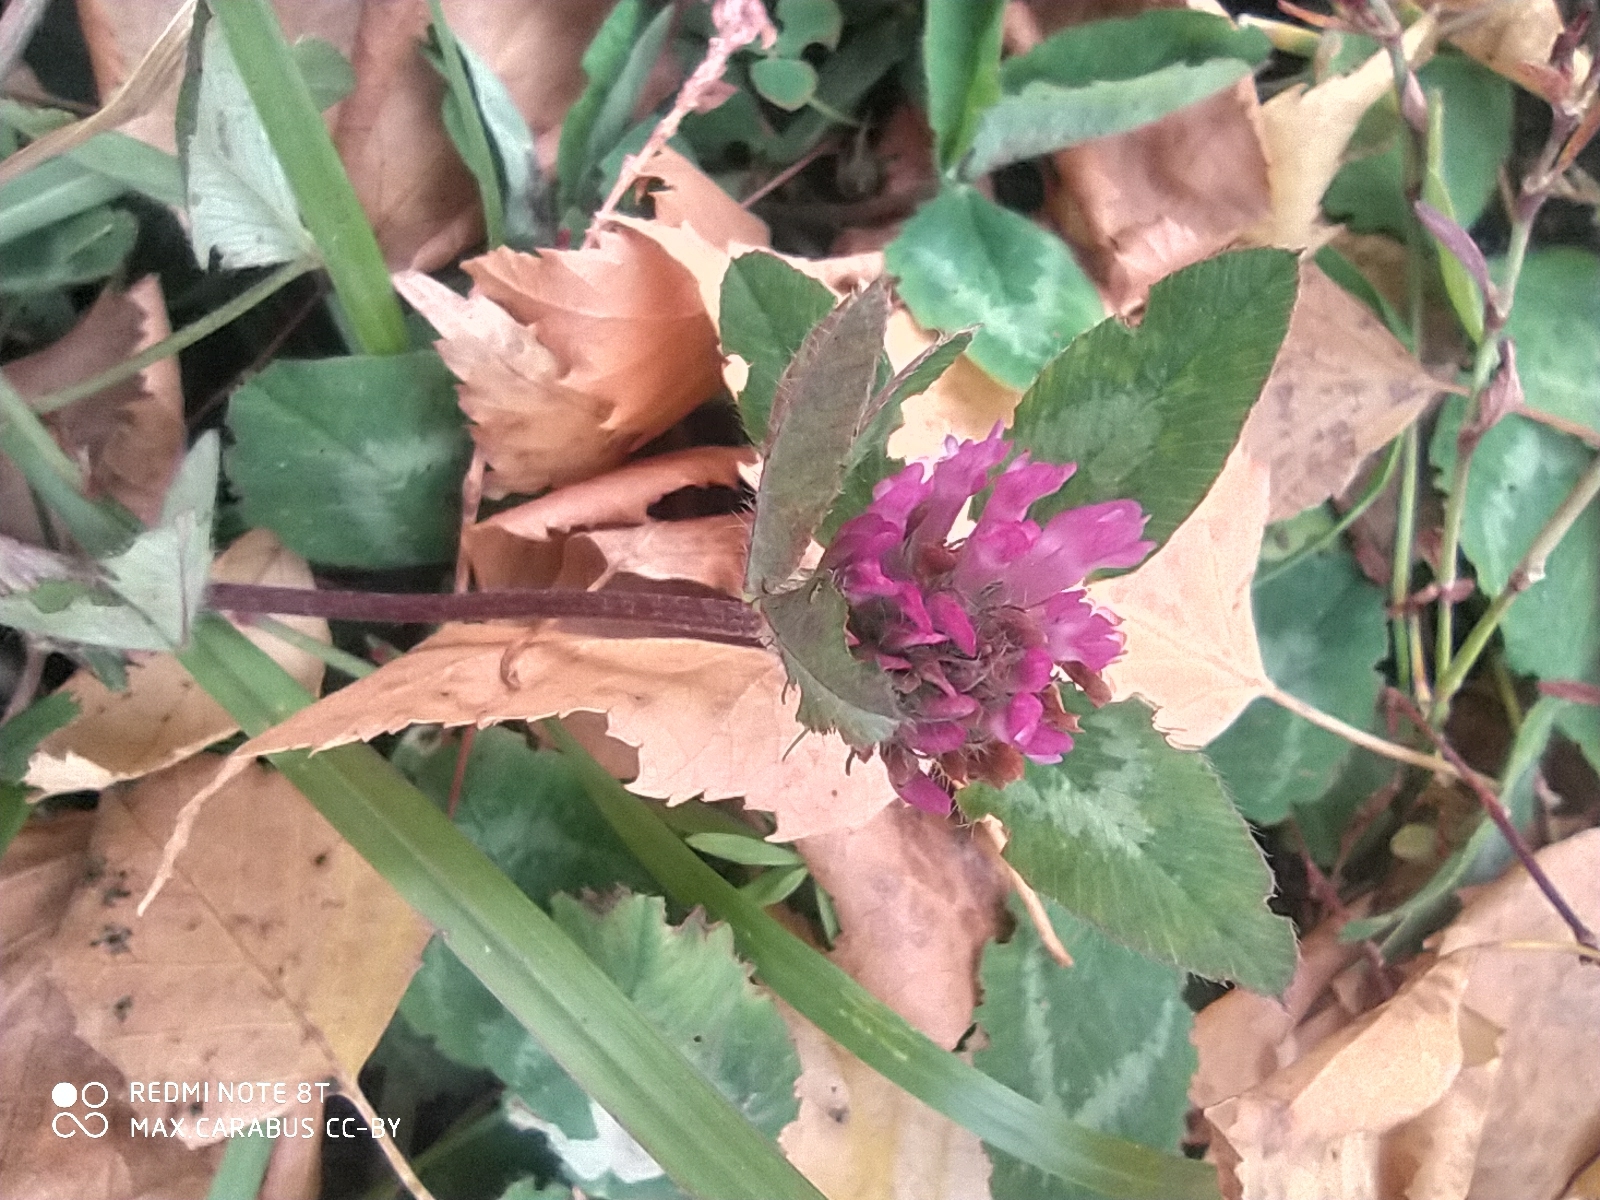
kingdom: Plantae
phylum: Tracheophyta
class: Magnoliopsida
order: Fabales
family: Fabaceae
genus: Trifolium
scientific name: Trifolium pratense
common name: Red clover
